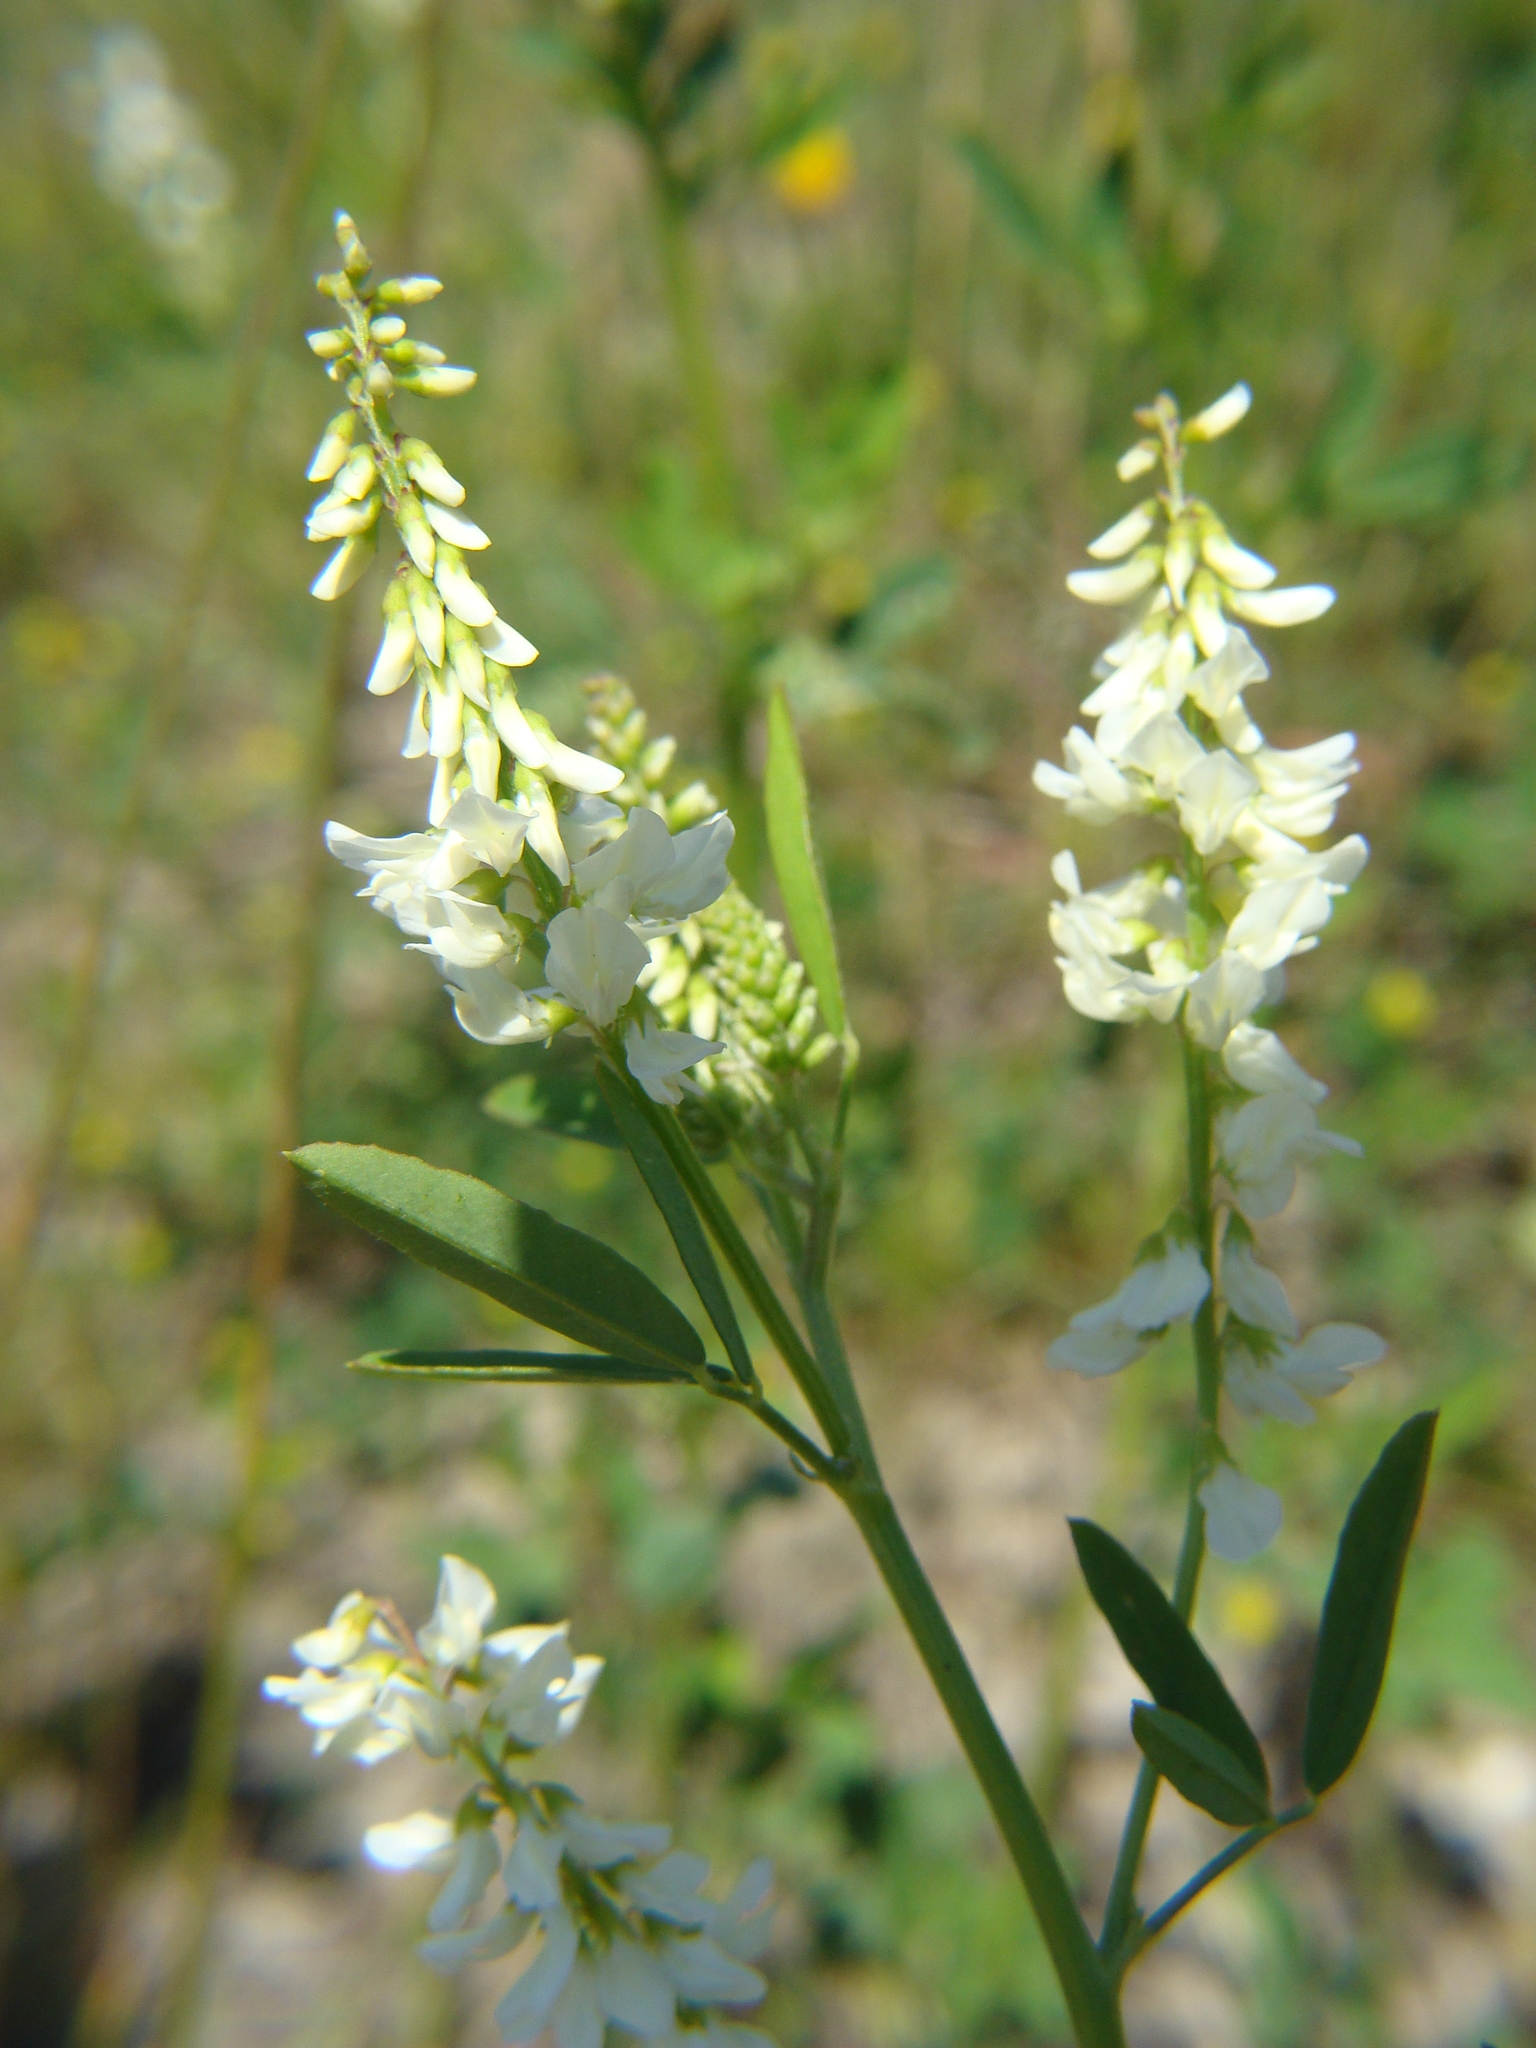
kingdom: Plantae
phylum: Tracheophyta
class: Magnoliopsida
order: Fabales
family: Fabaceae
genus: Melilotus
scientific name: Melilotus albus
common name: White melilot
